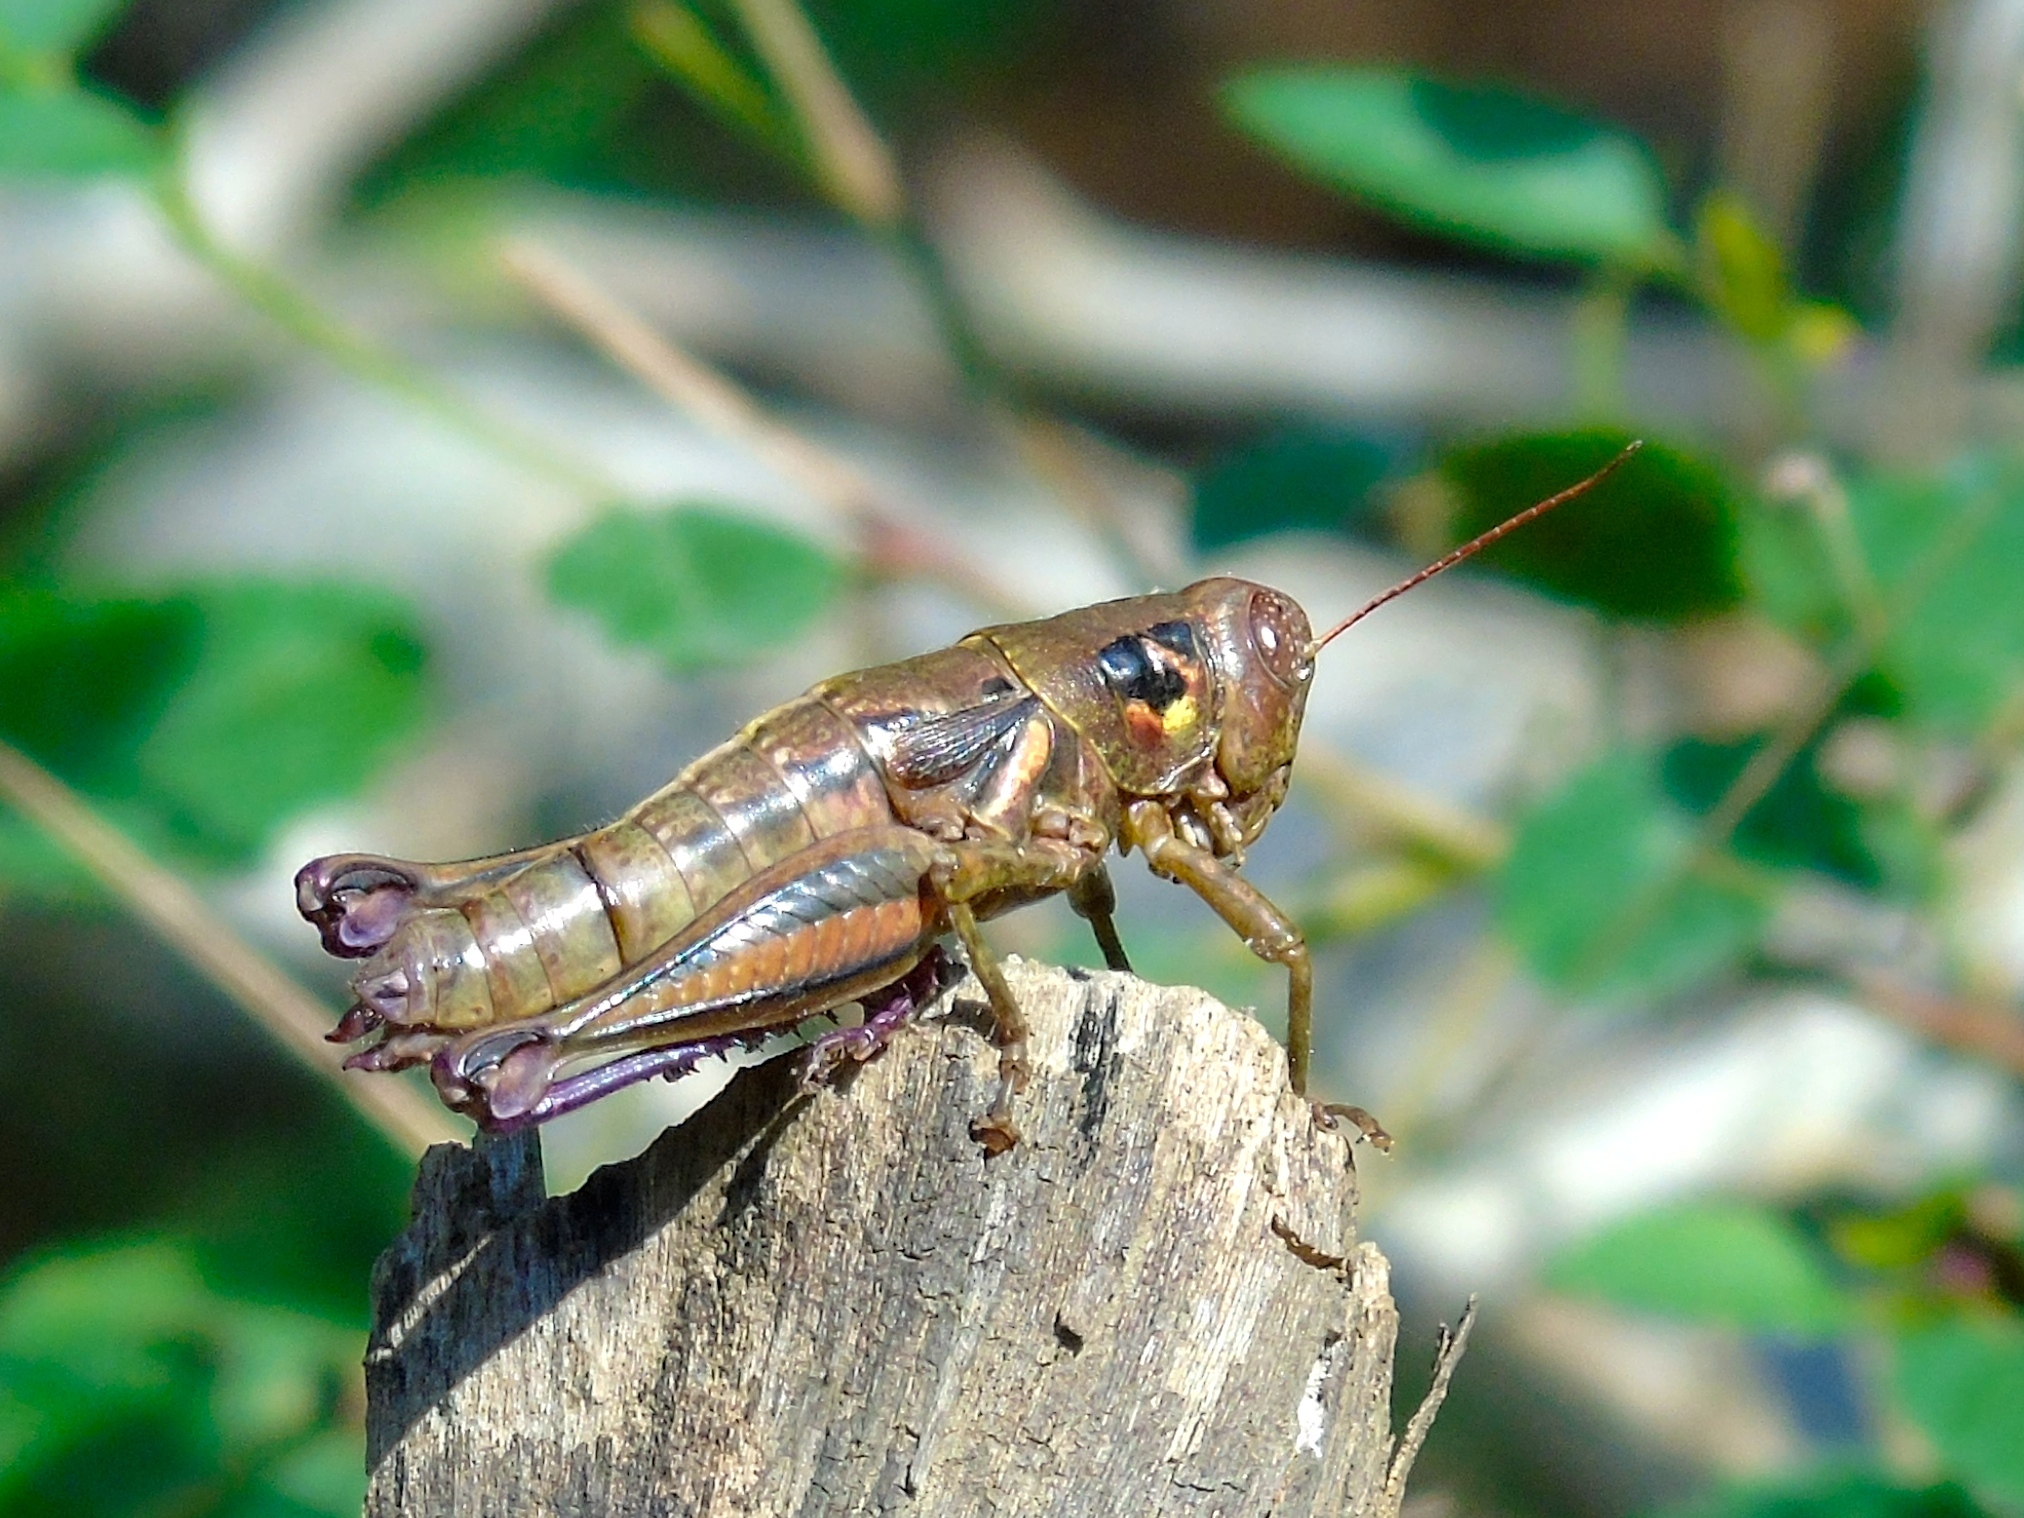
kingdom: Animalia
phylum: Arthropoda
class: Insecta
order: Orthoptera
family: Acrididae
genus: Barytettix
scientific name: Barytettix
